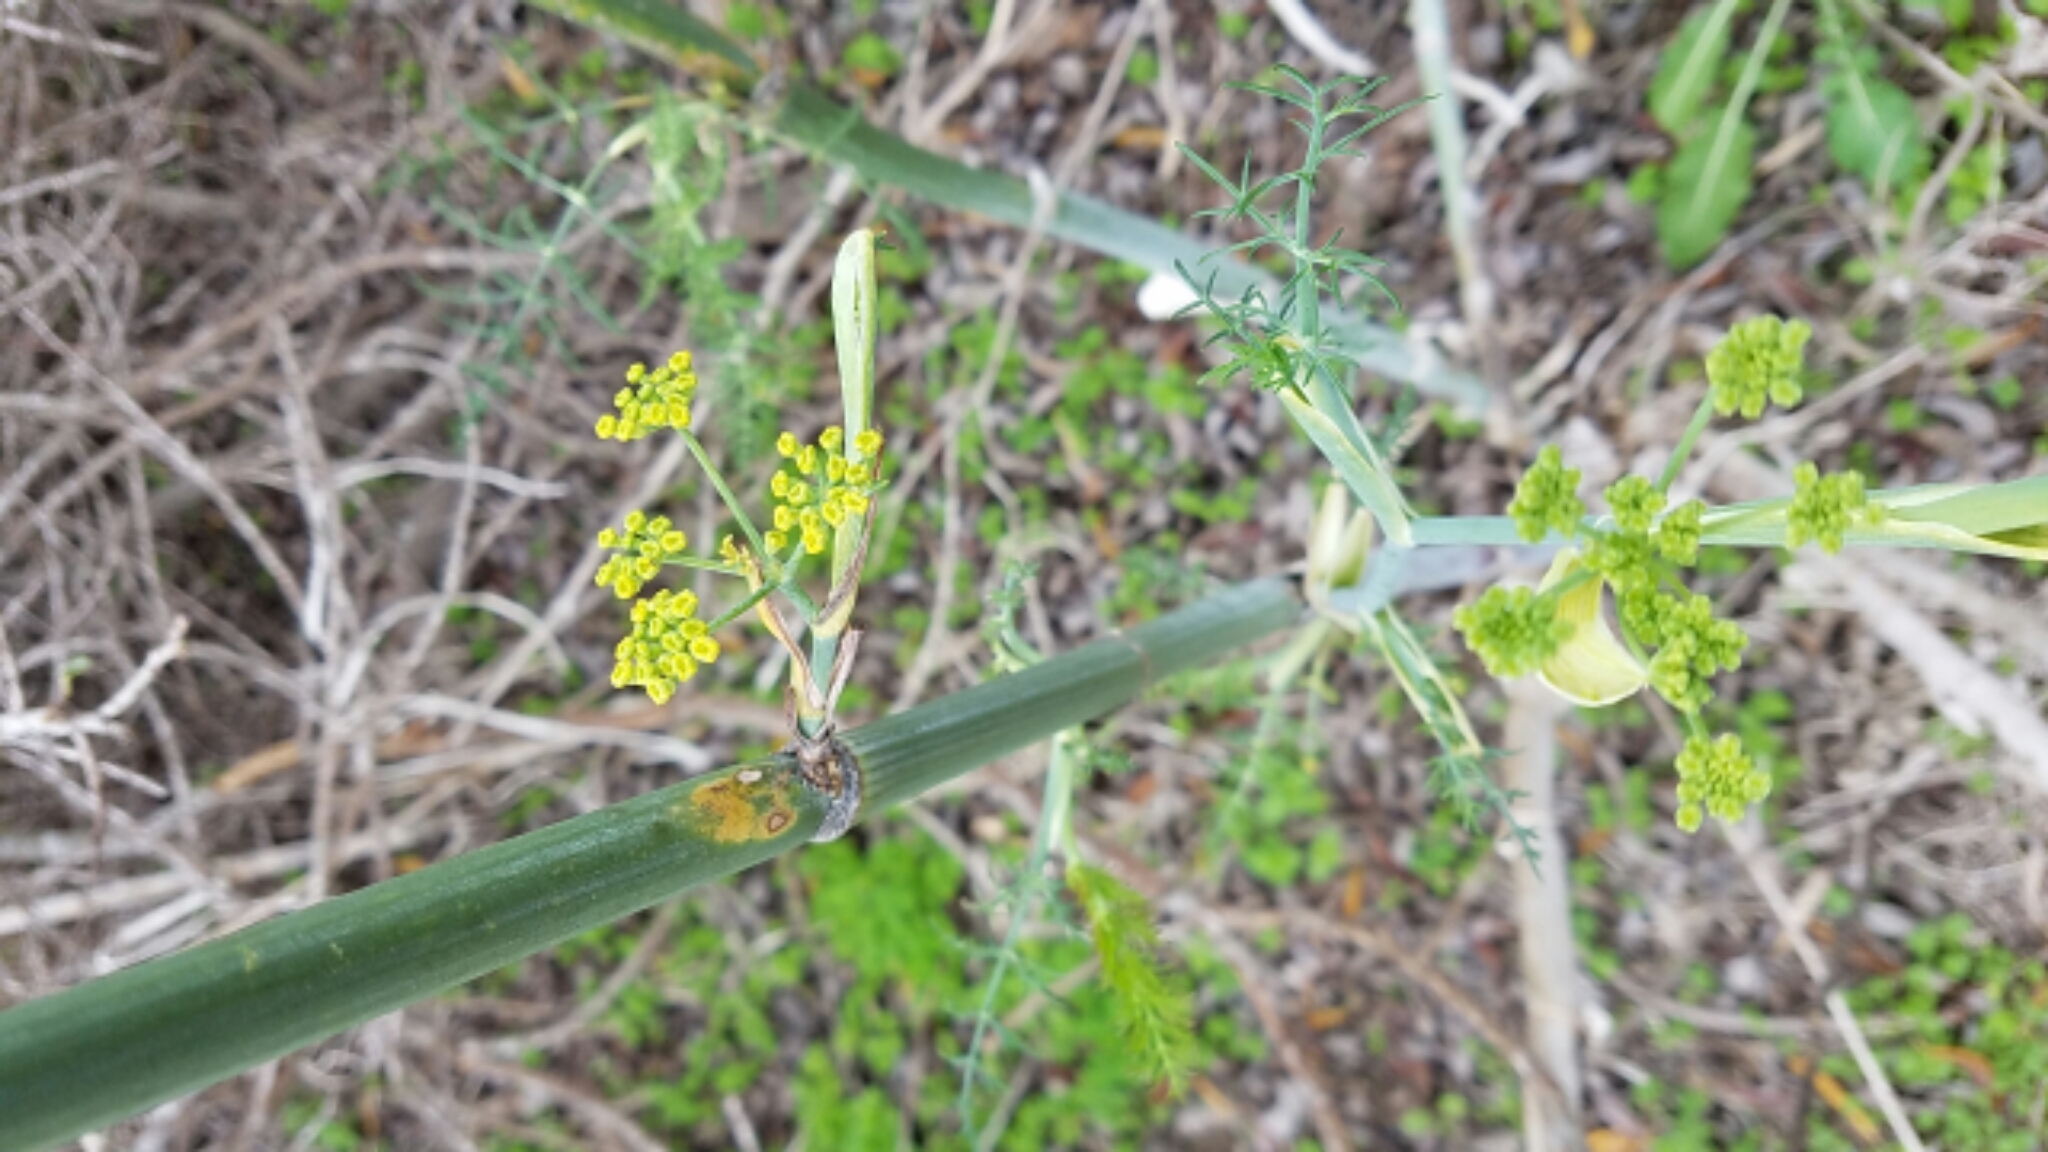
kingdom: Plantae
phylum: Tracheophyta
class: Magnoliopsida
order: Apiales
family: Apiaceae
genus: Foeniculum
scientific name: Foeniculum vulgare
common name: Fennel
